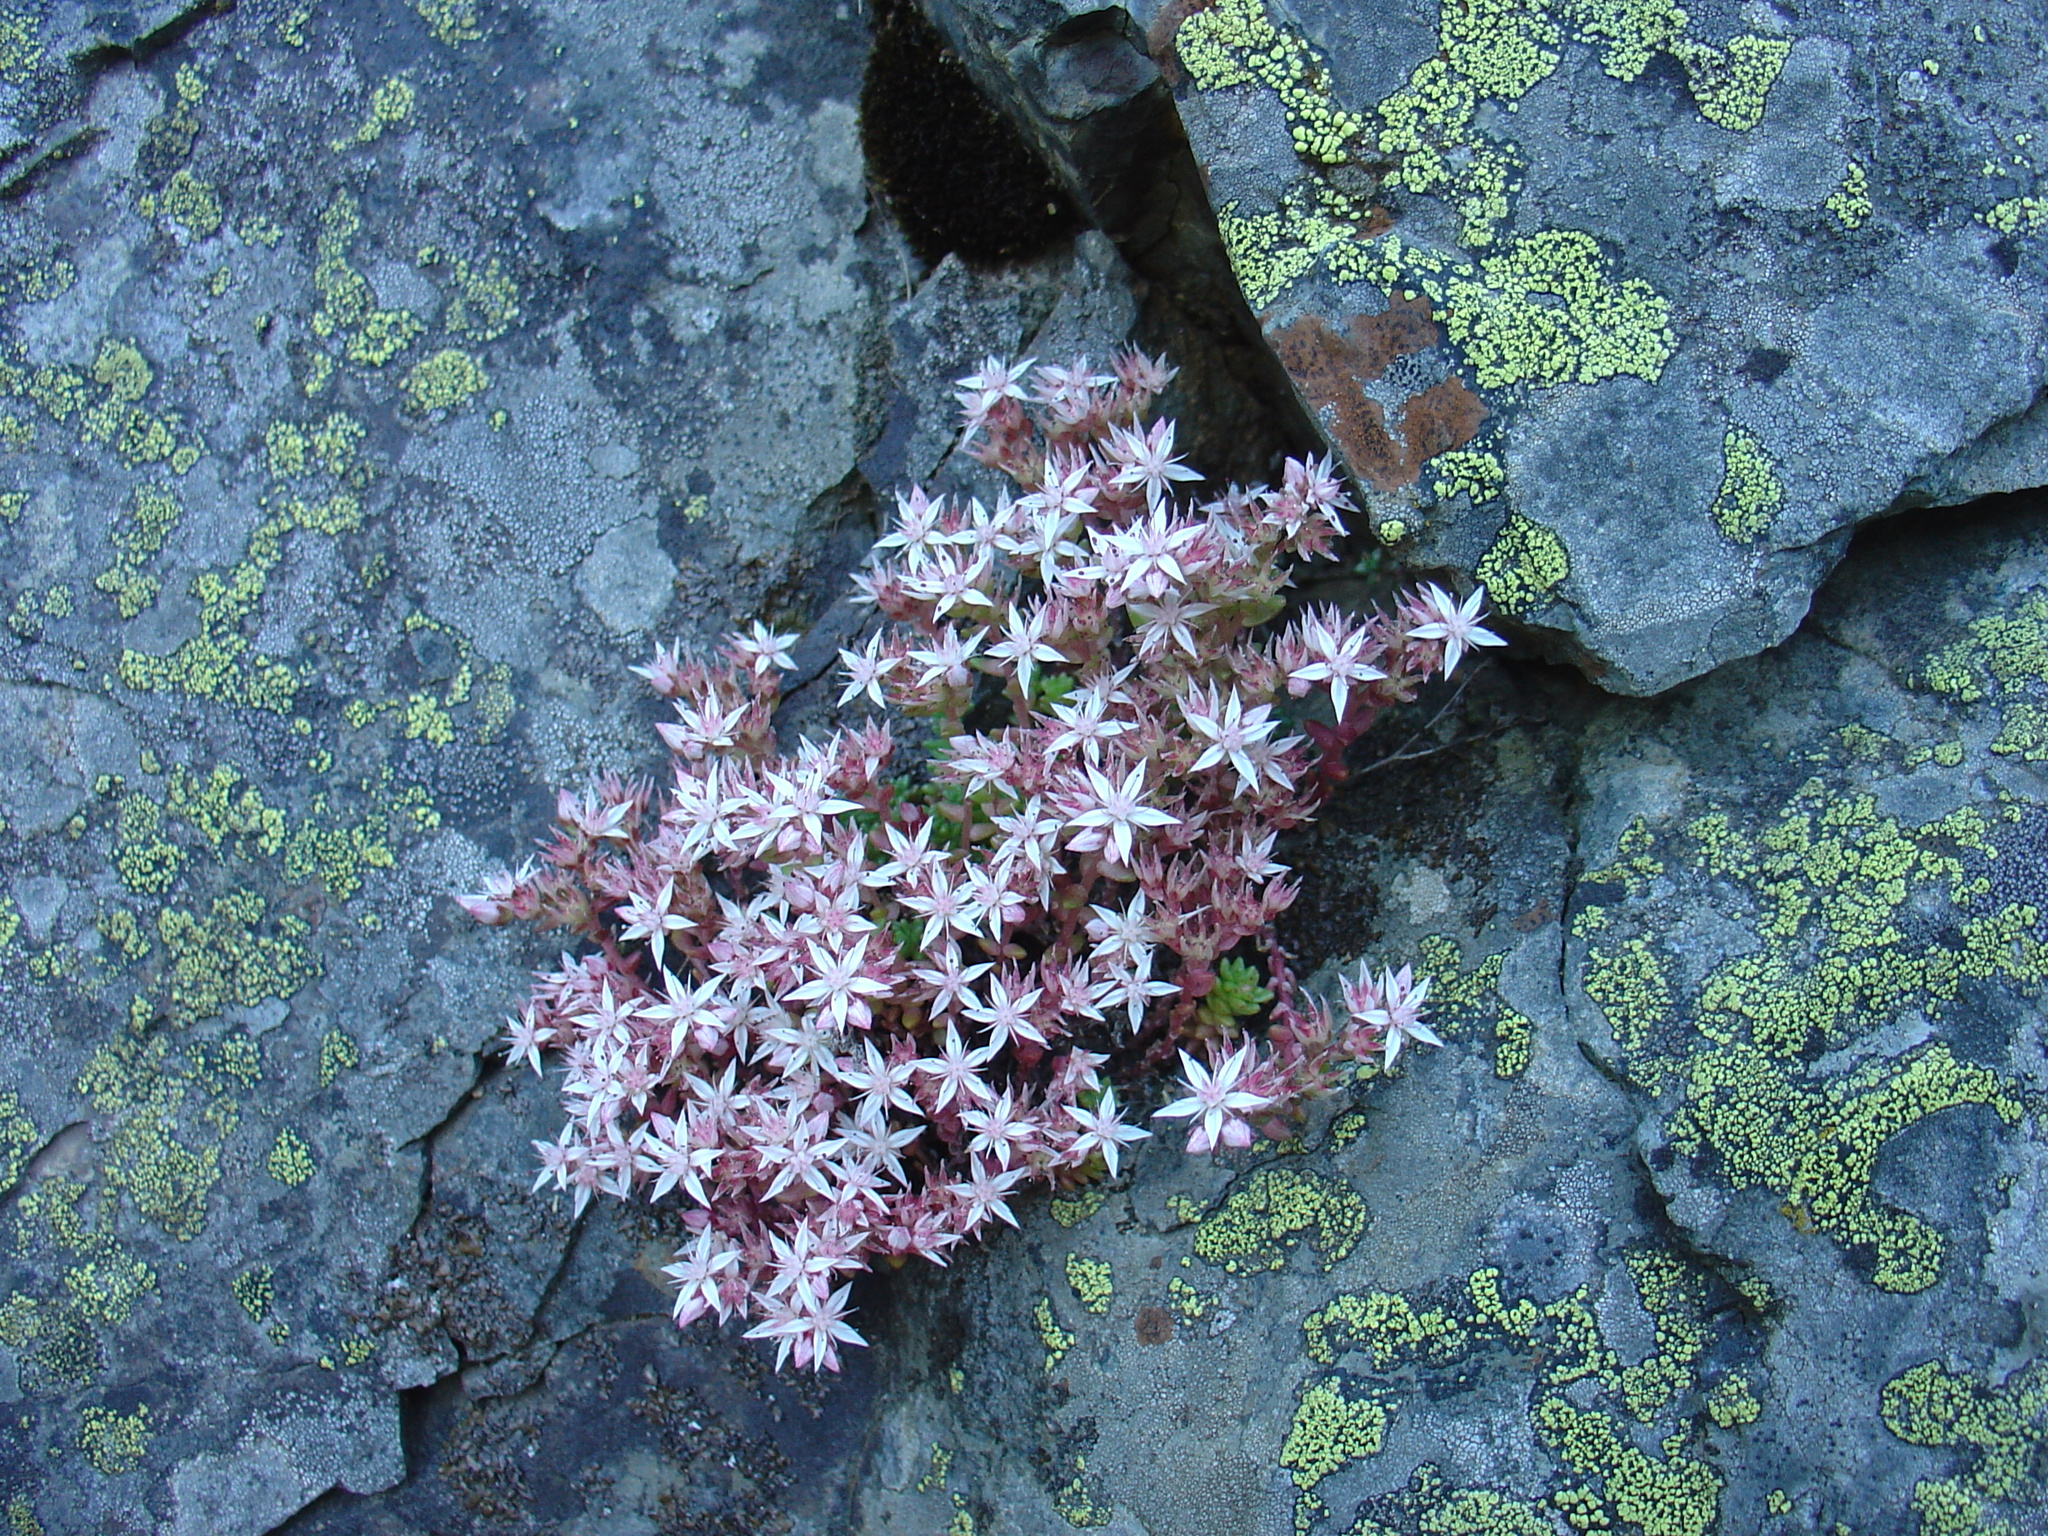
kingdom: Plantae
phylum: Tracheophyta
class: Magnoliopsida
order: Saxifragales
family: Crassulaceae
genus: Sedum
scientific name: Sedum anglicum
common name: English stonecrop
